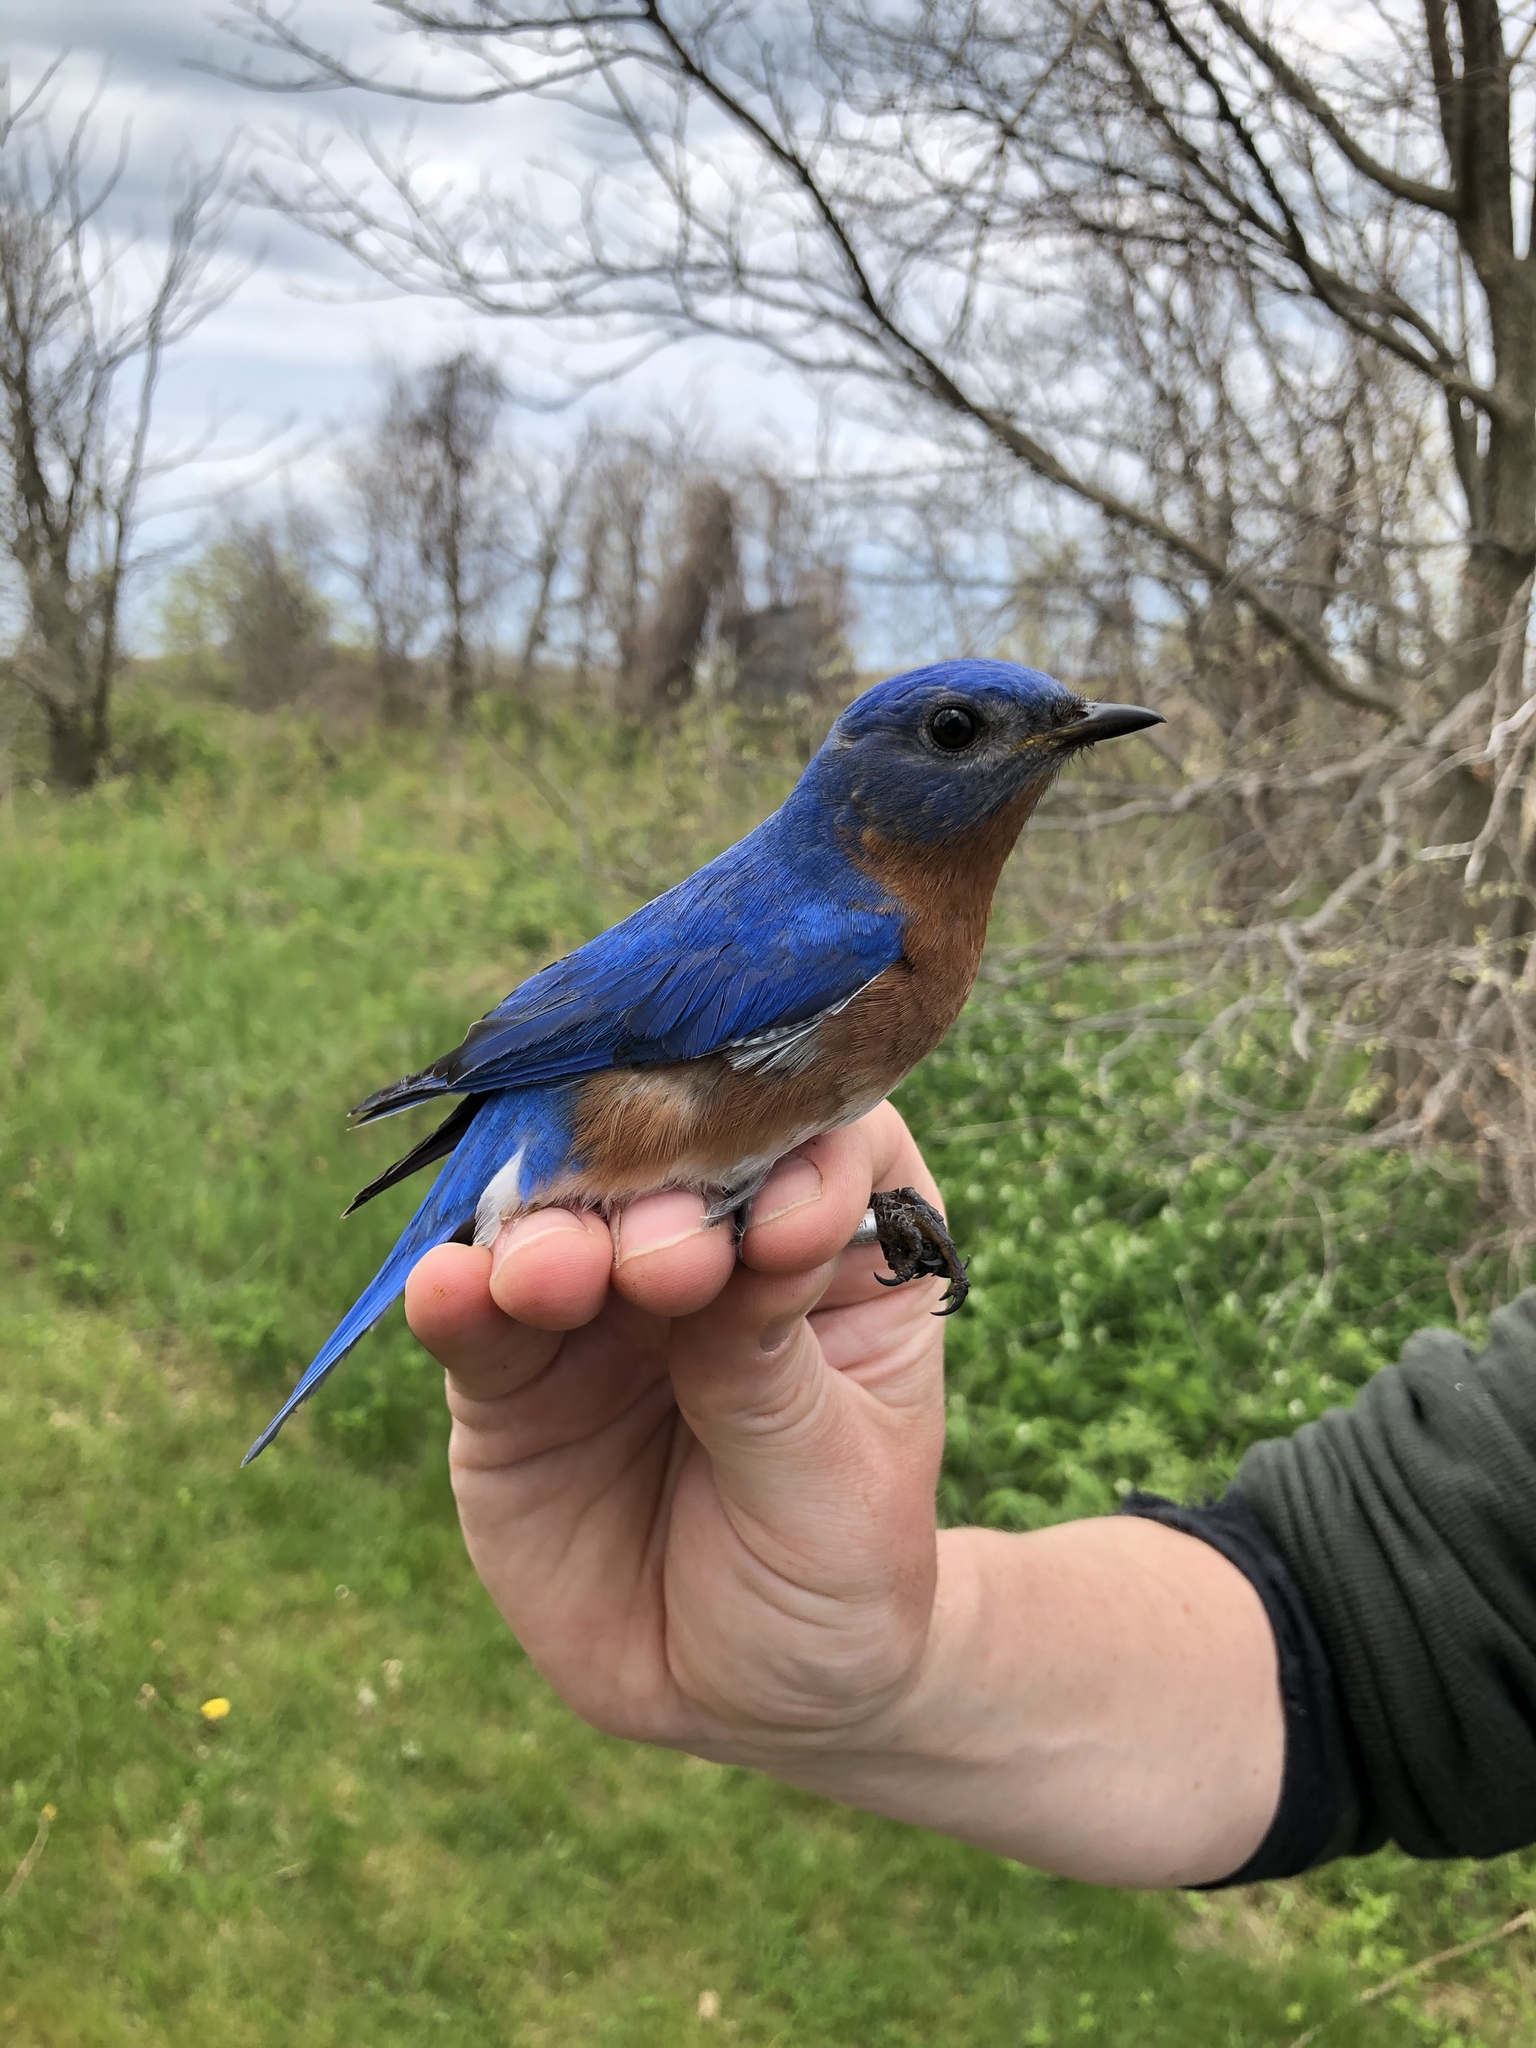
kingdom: Animalia
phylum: Chordata
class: Aves
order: Passeriformes
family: Turdidae
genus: Sialia
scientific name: Sialia sialis
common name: Eastern bluebird
